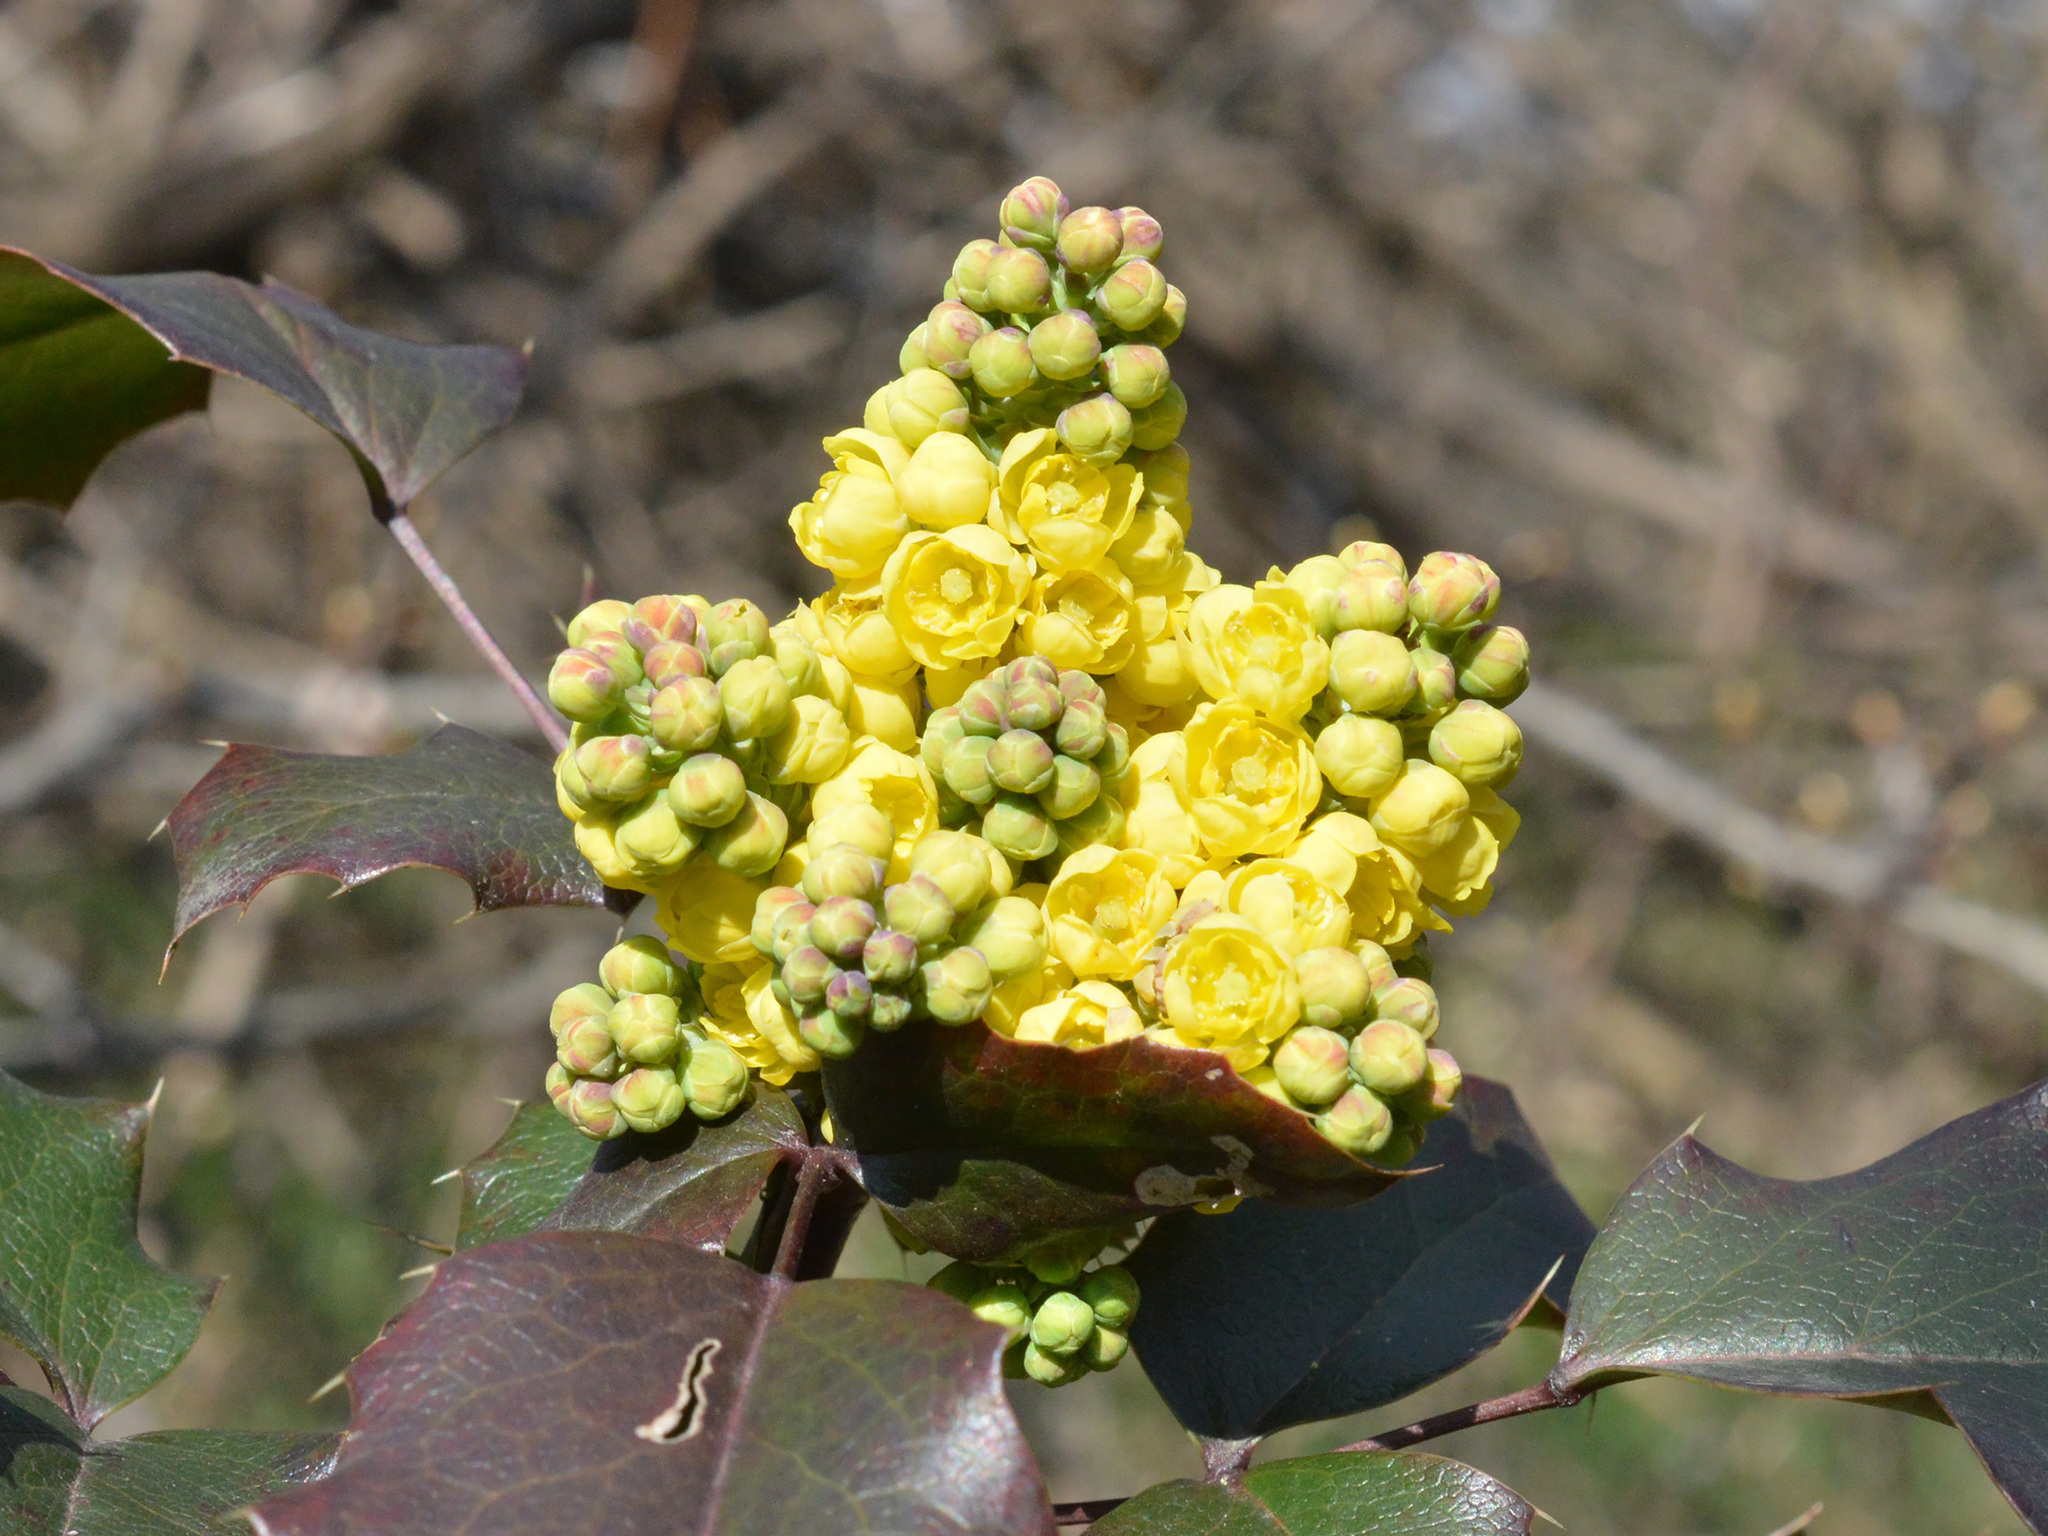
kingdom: Plantae
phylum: Tracheophyta
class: Magnoliopsida
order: Ranunculales
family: Berberidaceae
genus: Mahonia
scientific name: Mahonia aquifolium
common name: Oregon-grape
